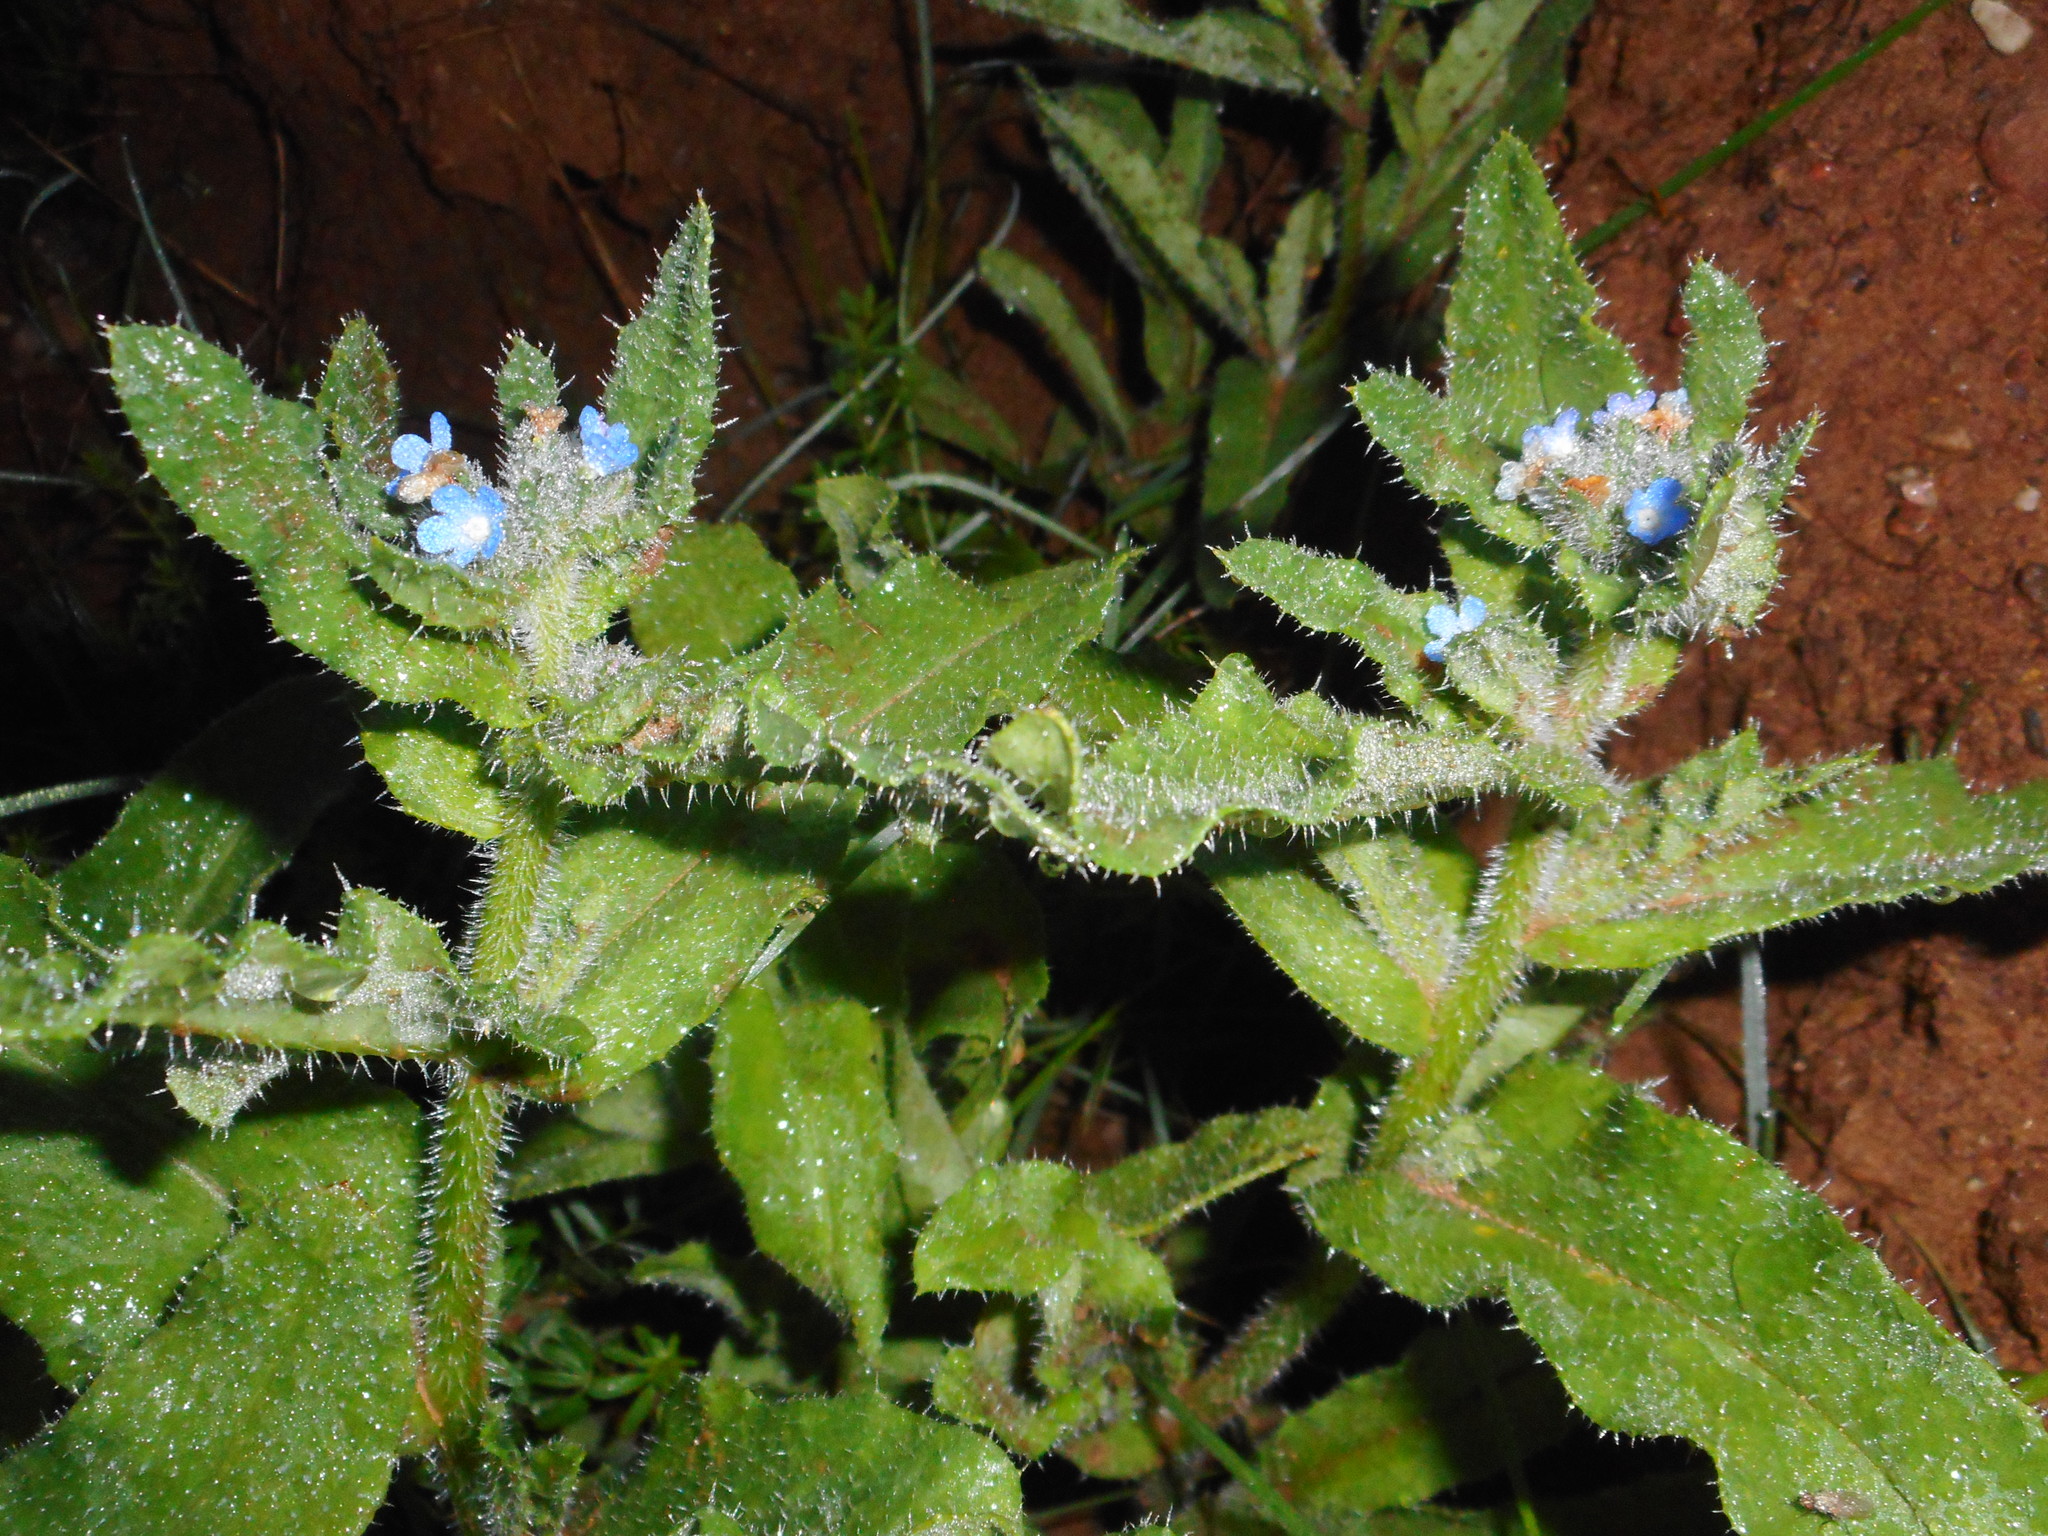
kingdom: Plantae
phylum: Tracheophyta
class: Magnoliopsida
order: Boraginales
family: Boraginaceae
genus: Lycopsis
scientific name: Lycopsis arvensis
